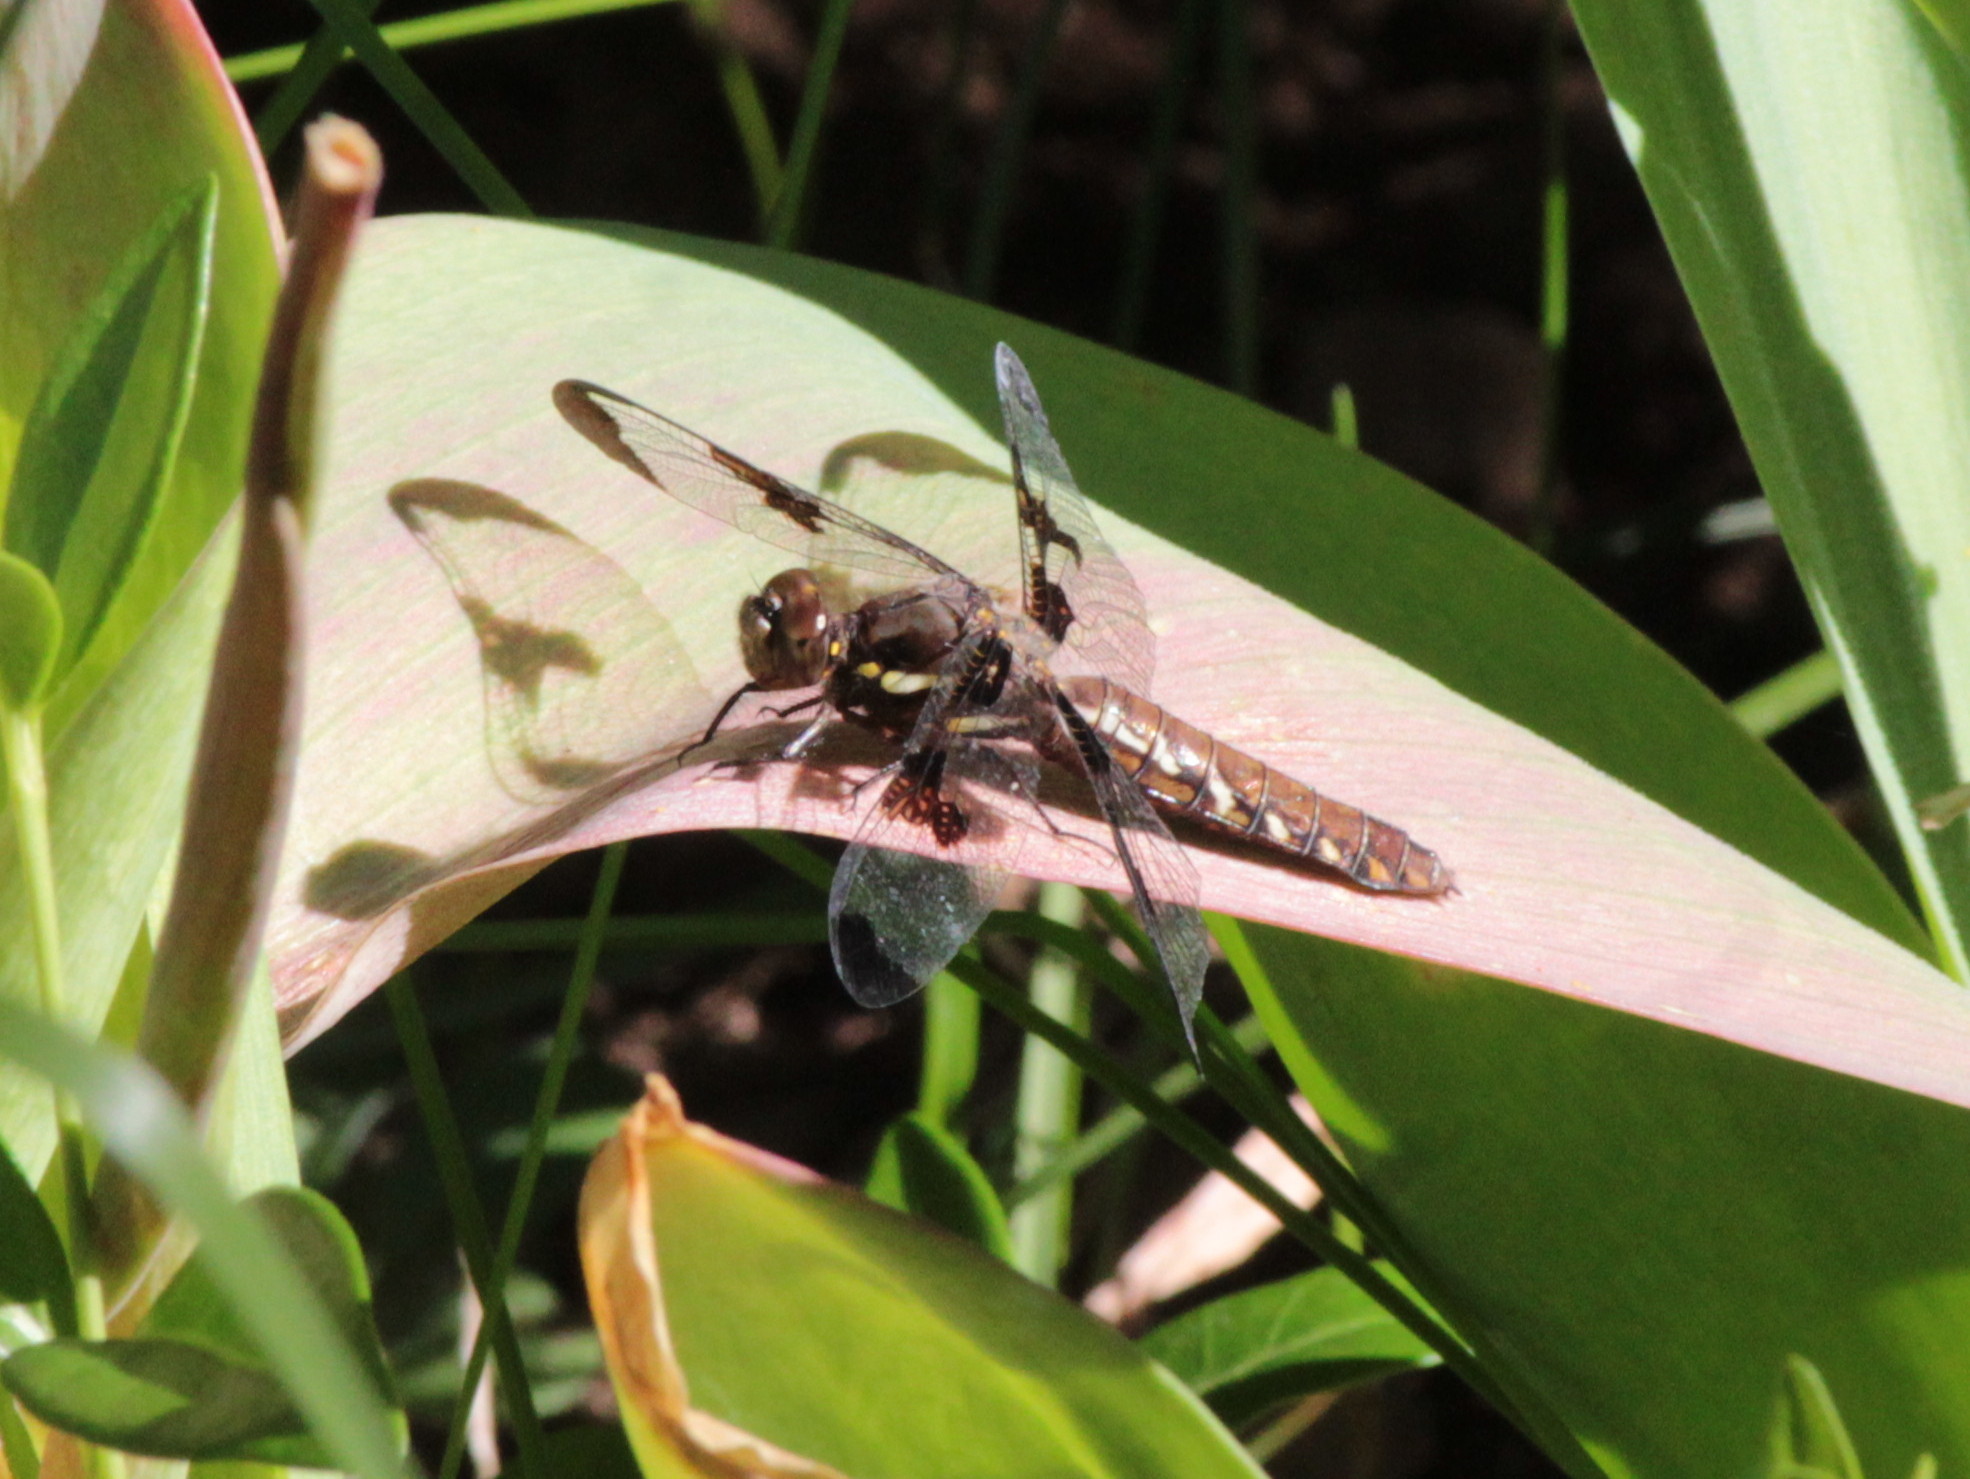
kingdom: Animalia
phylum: Arthropoda
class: Insecta
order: Odonata
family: Libellulidae
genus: Plathemis
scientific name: Plathemis lydia
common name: Common whitetail
